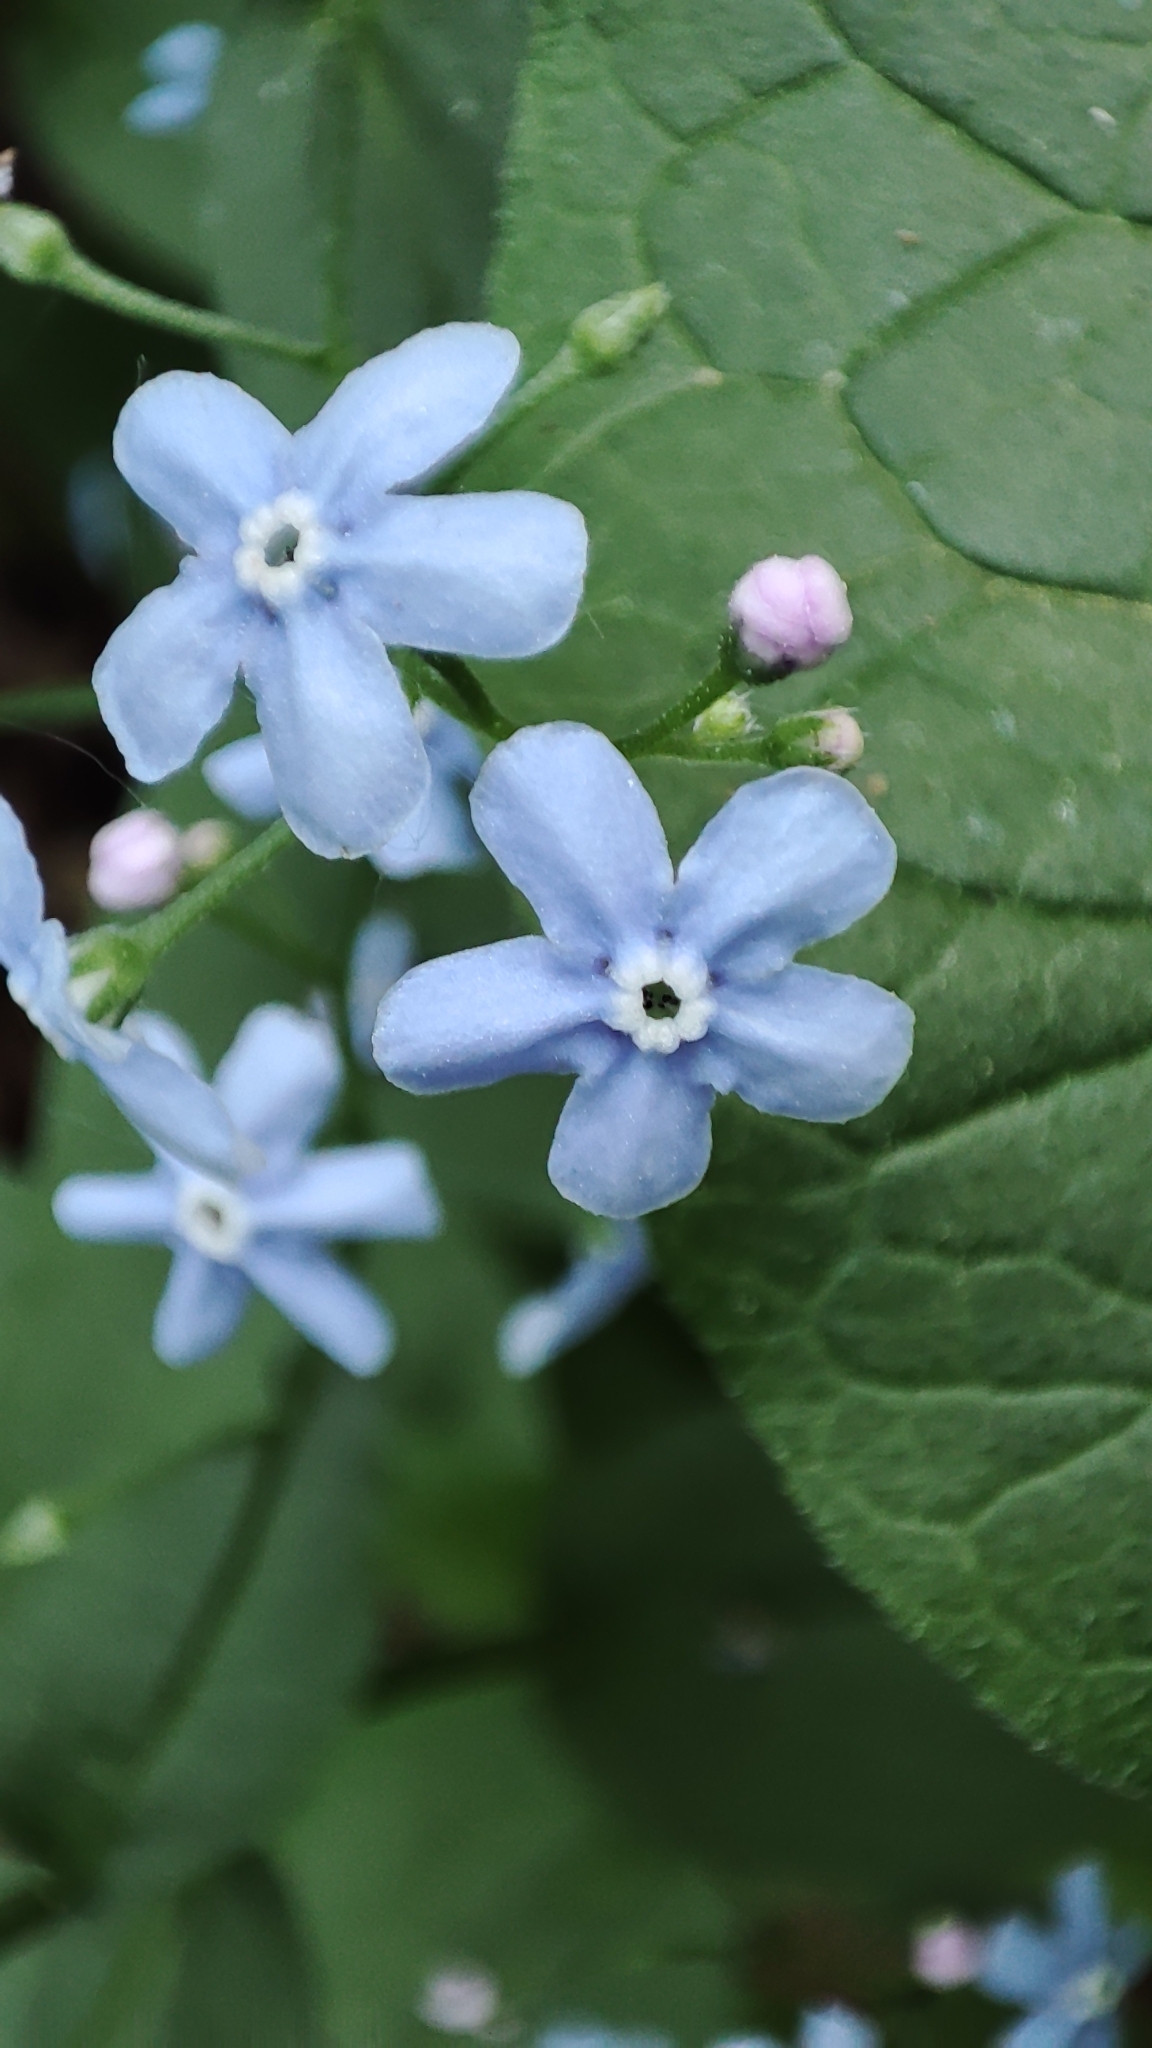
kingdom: Plantae
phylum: Tracheophyta
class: Magnoliopsida
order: Boraginales
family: Boraginaceae
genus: Brunnera
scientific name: Brunnera sibirica
